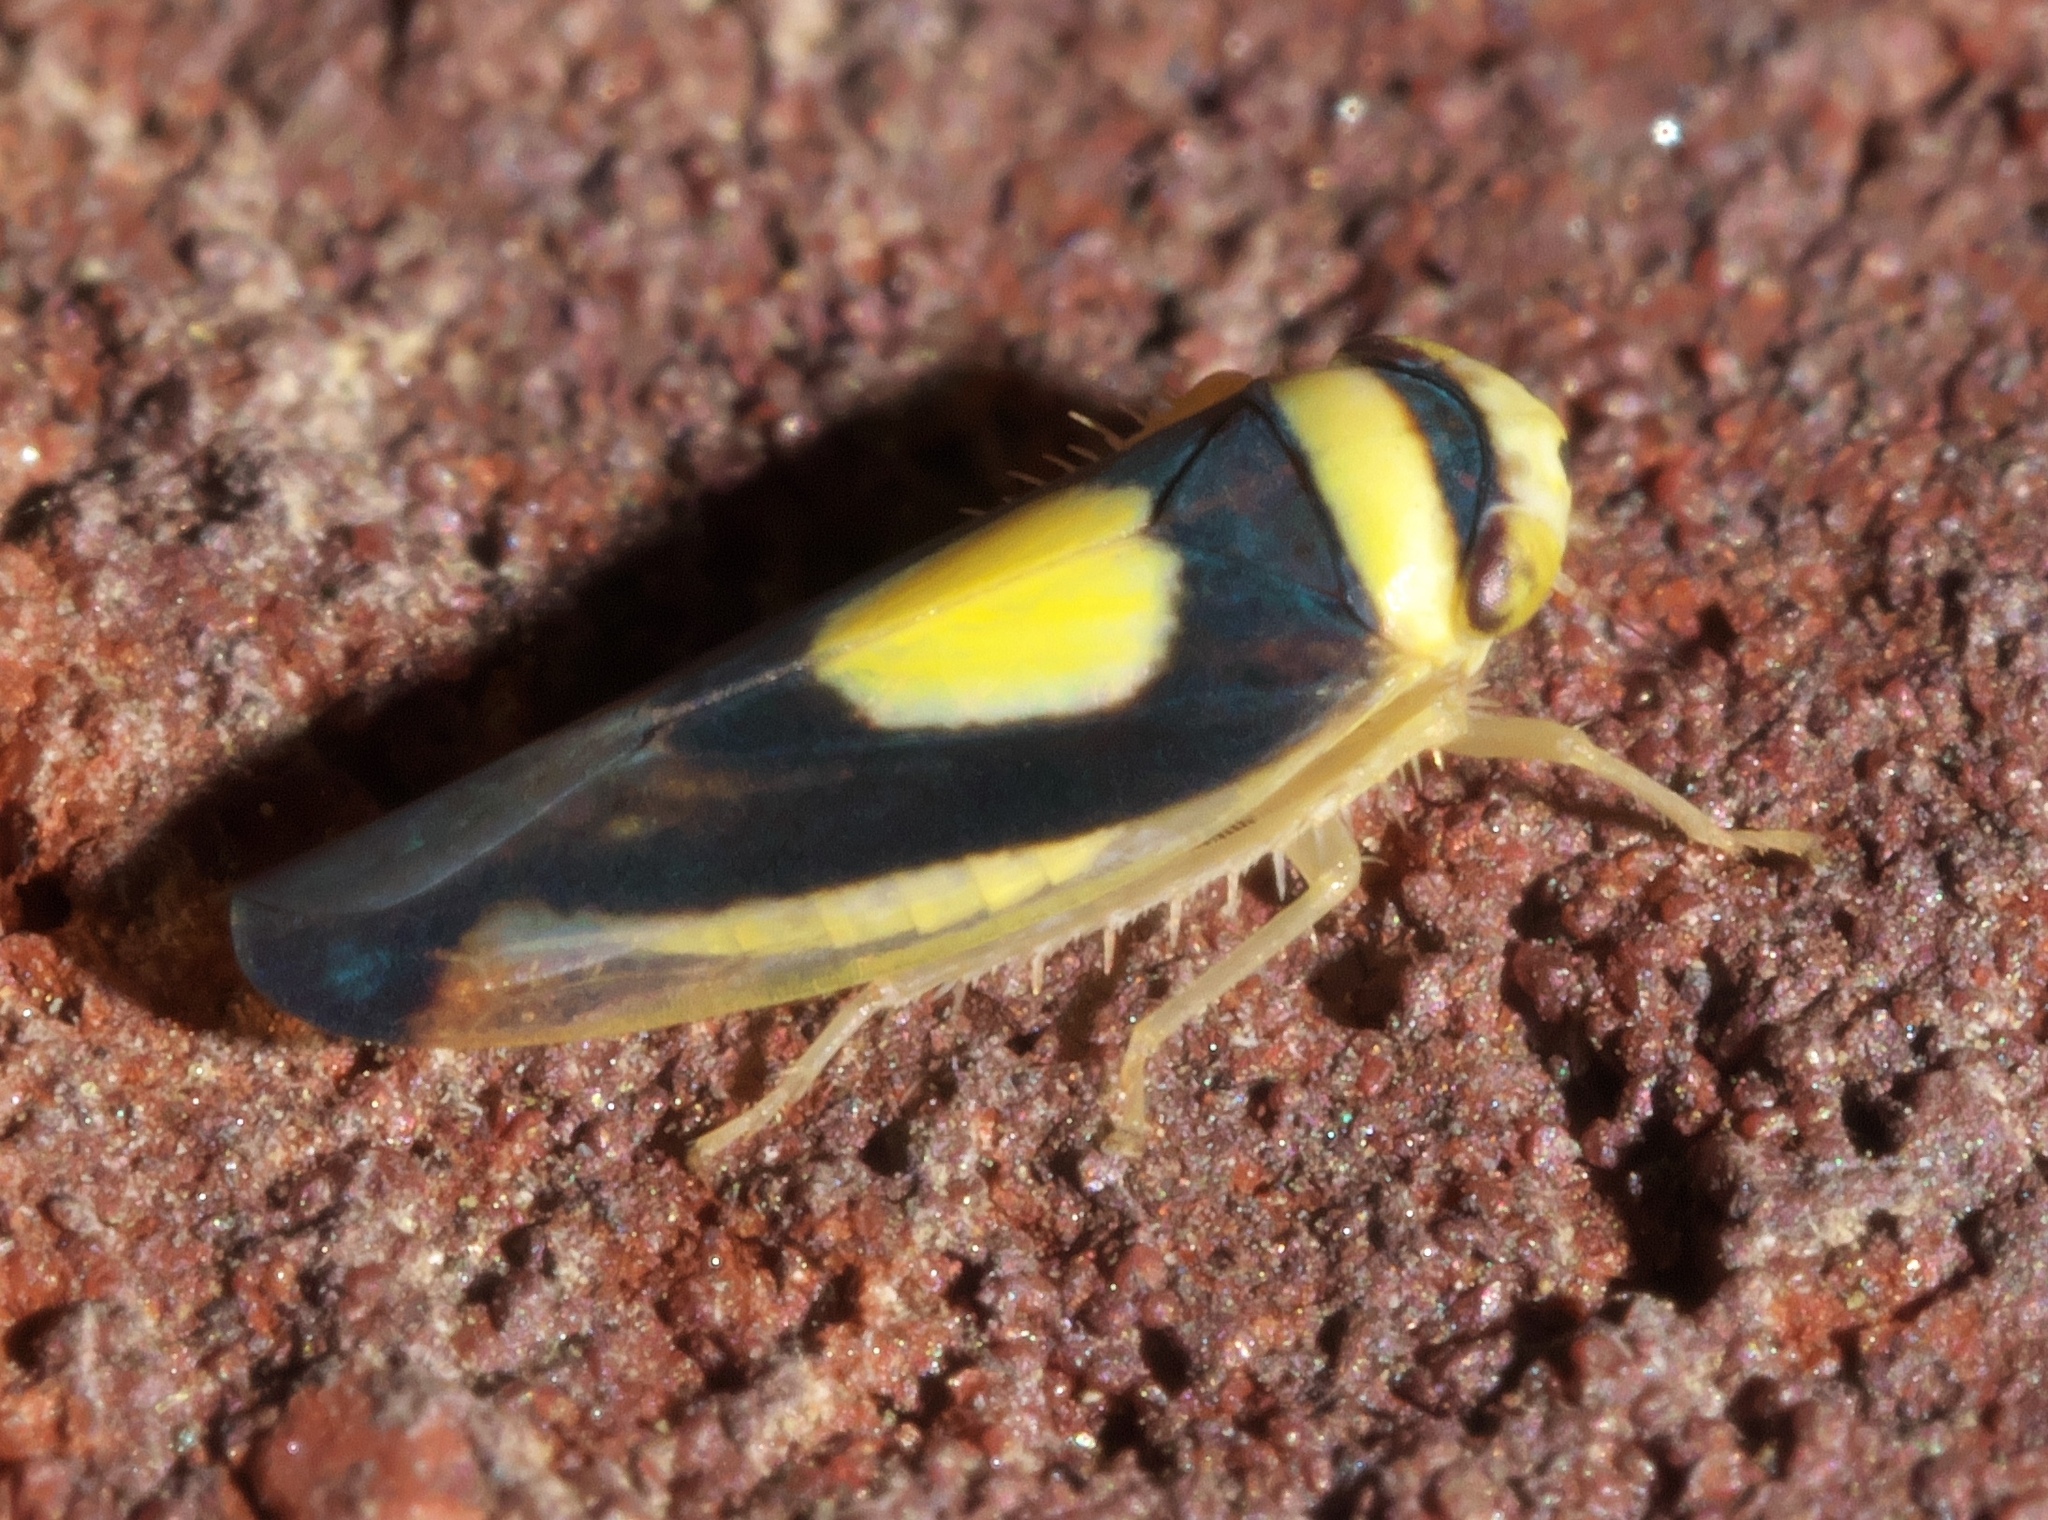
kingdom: Animalia
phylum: Arthropoda
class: Insecta
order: Hemiptera
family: Cicadellidae
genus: Colladonus
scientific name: Colladonus clitellarius
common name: The saddleback leafhopper
